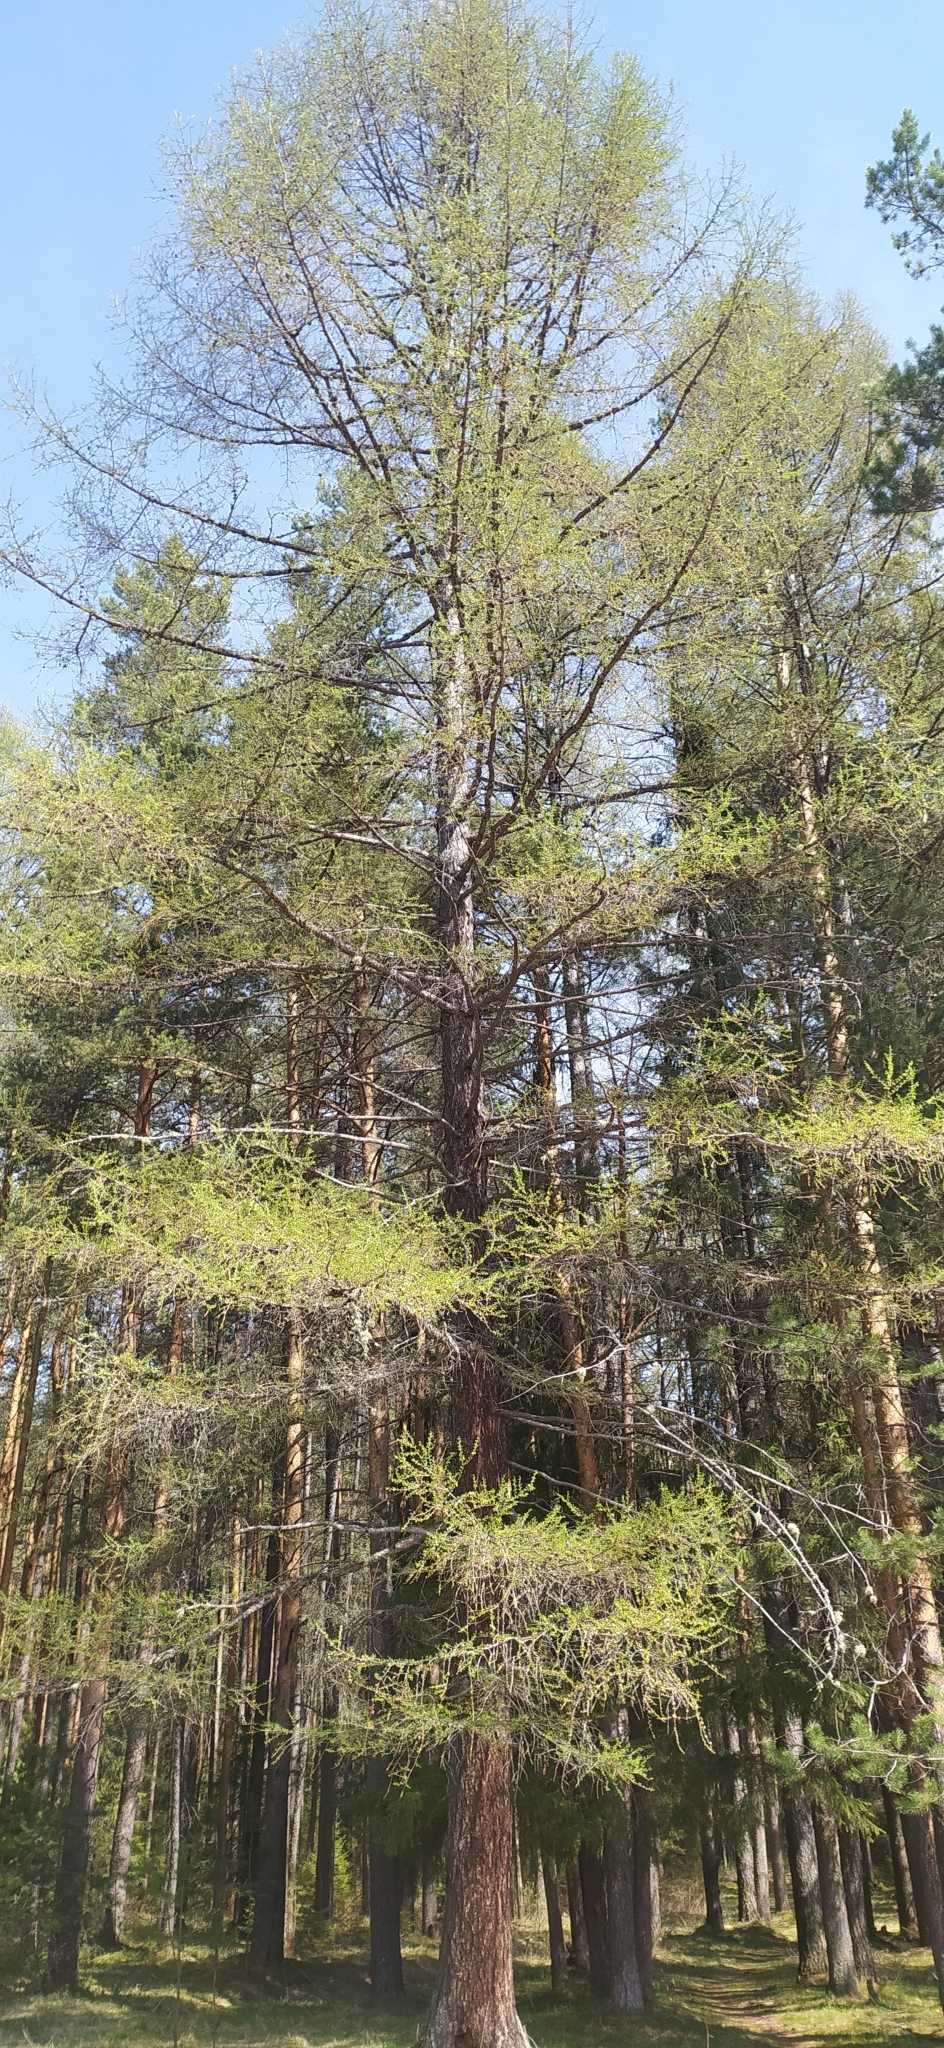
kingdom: Plantae
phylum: Tracheophyta
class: Pinopsida
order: Pinales
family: Pinaceae
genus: Larix
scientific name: Larix sibirica
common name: Siberian larch
